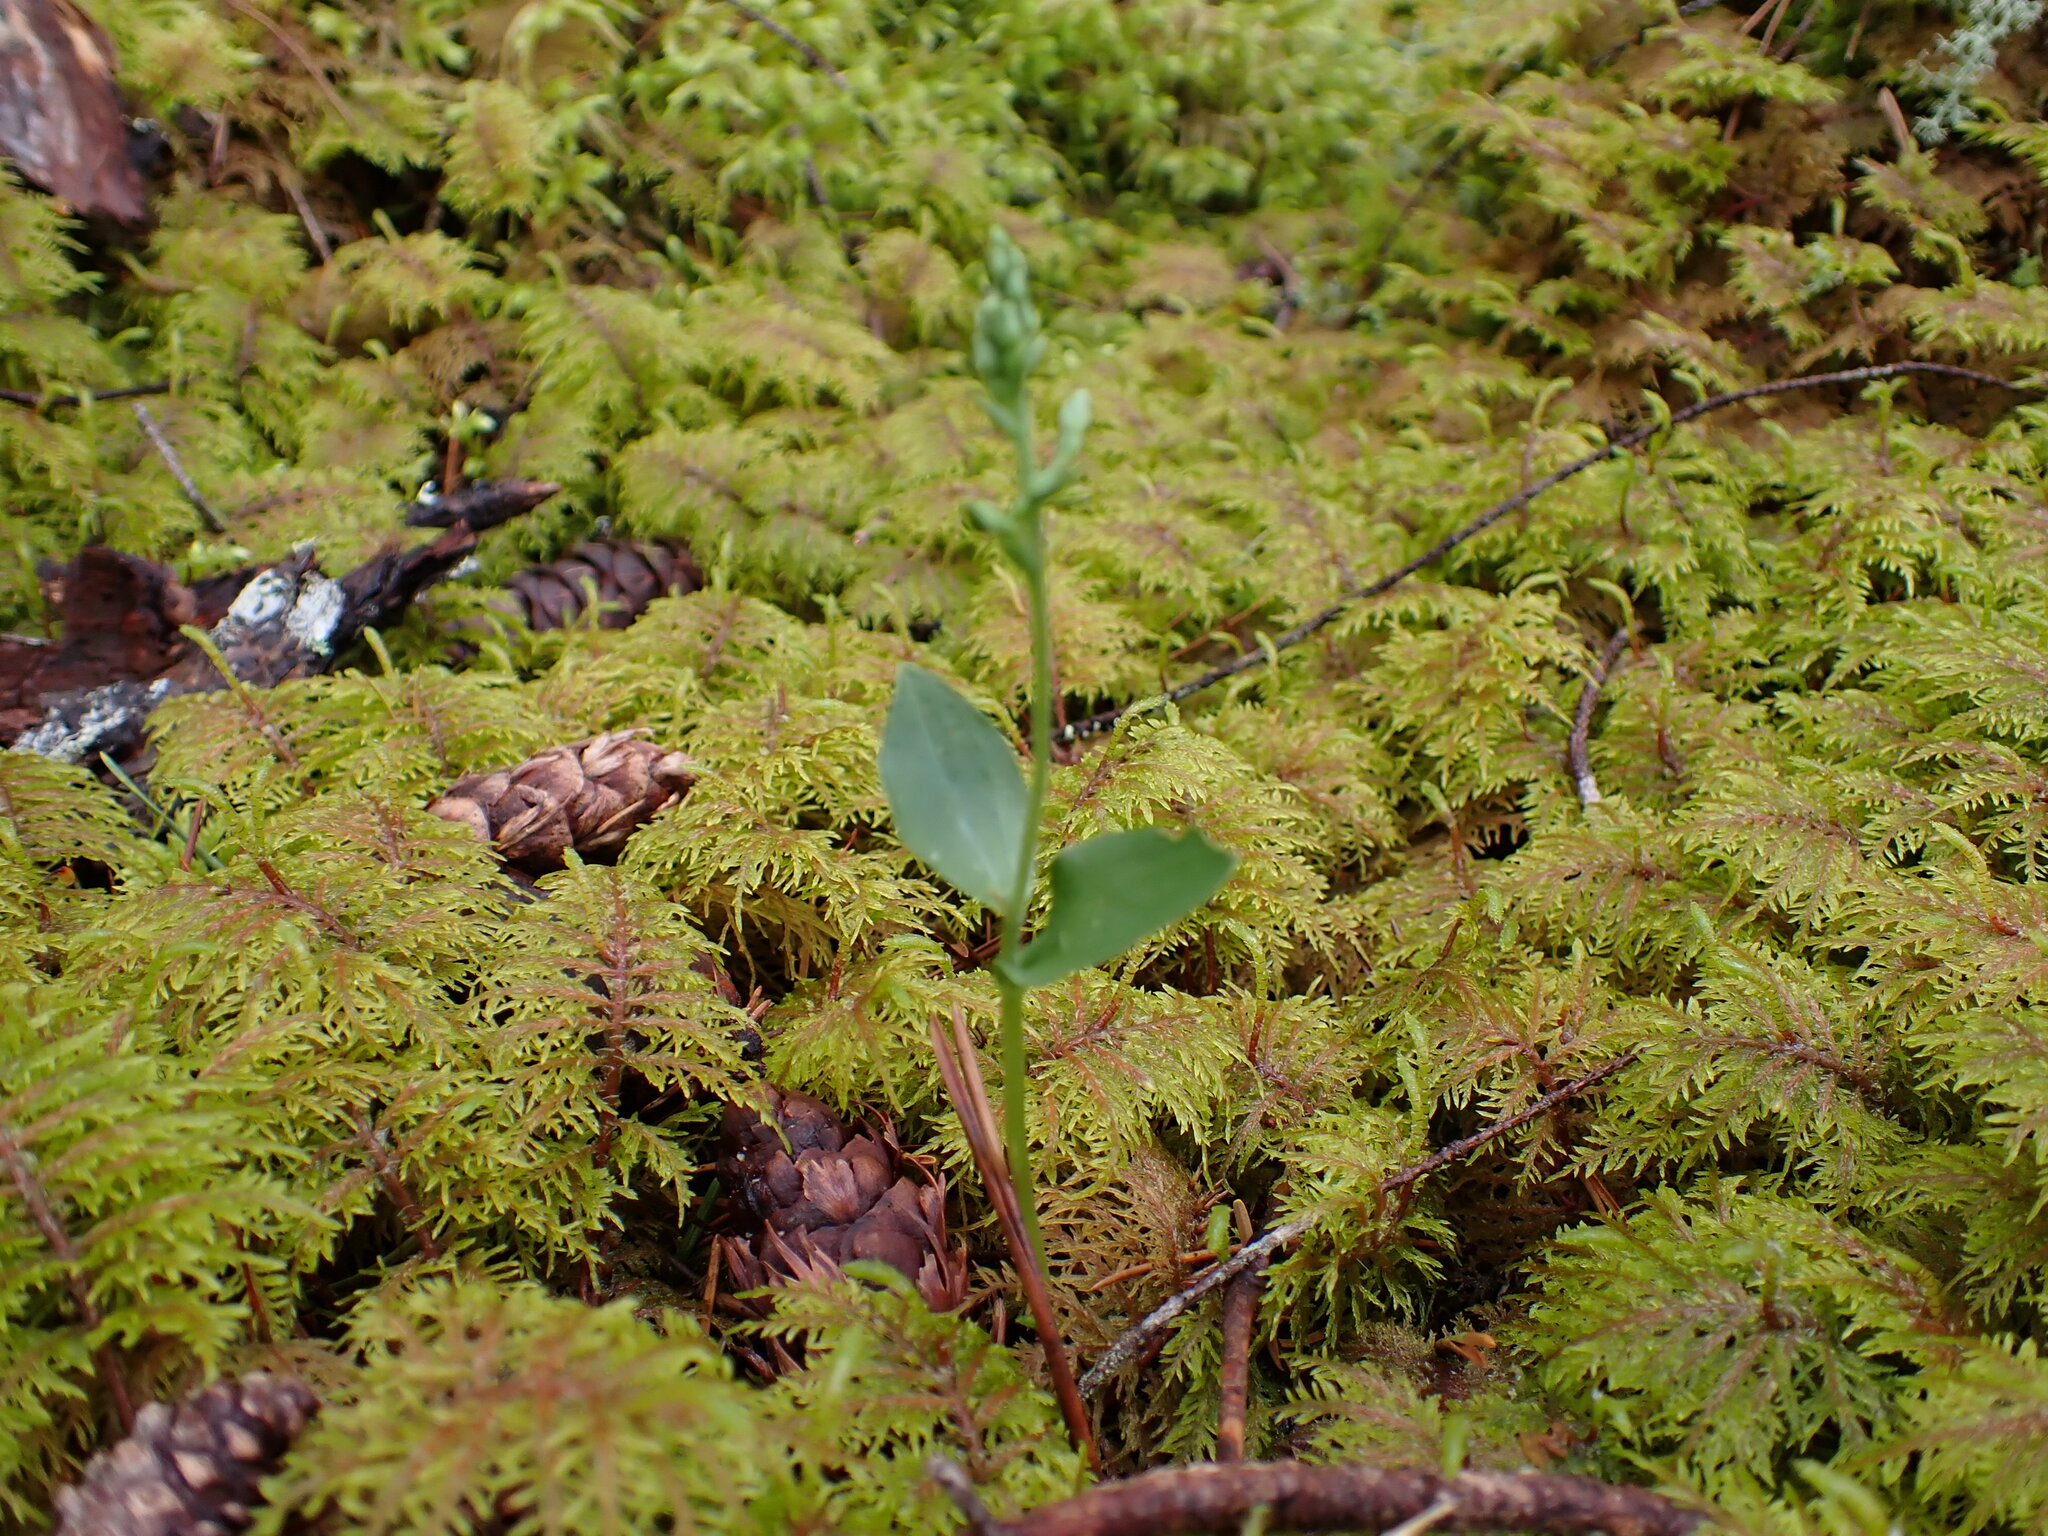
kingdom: Plantae
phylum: Tracheophyta
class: Liliopsida
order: Asparagales
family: Orchidaceae
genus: Neottia
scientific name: Neottia banksiana
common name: Northwestern twayblade
